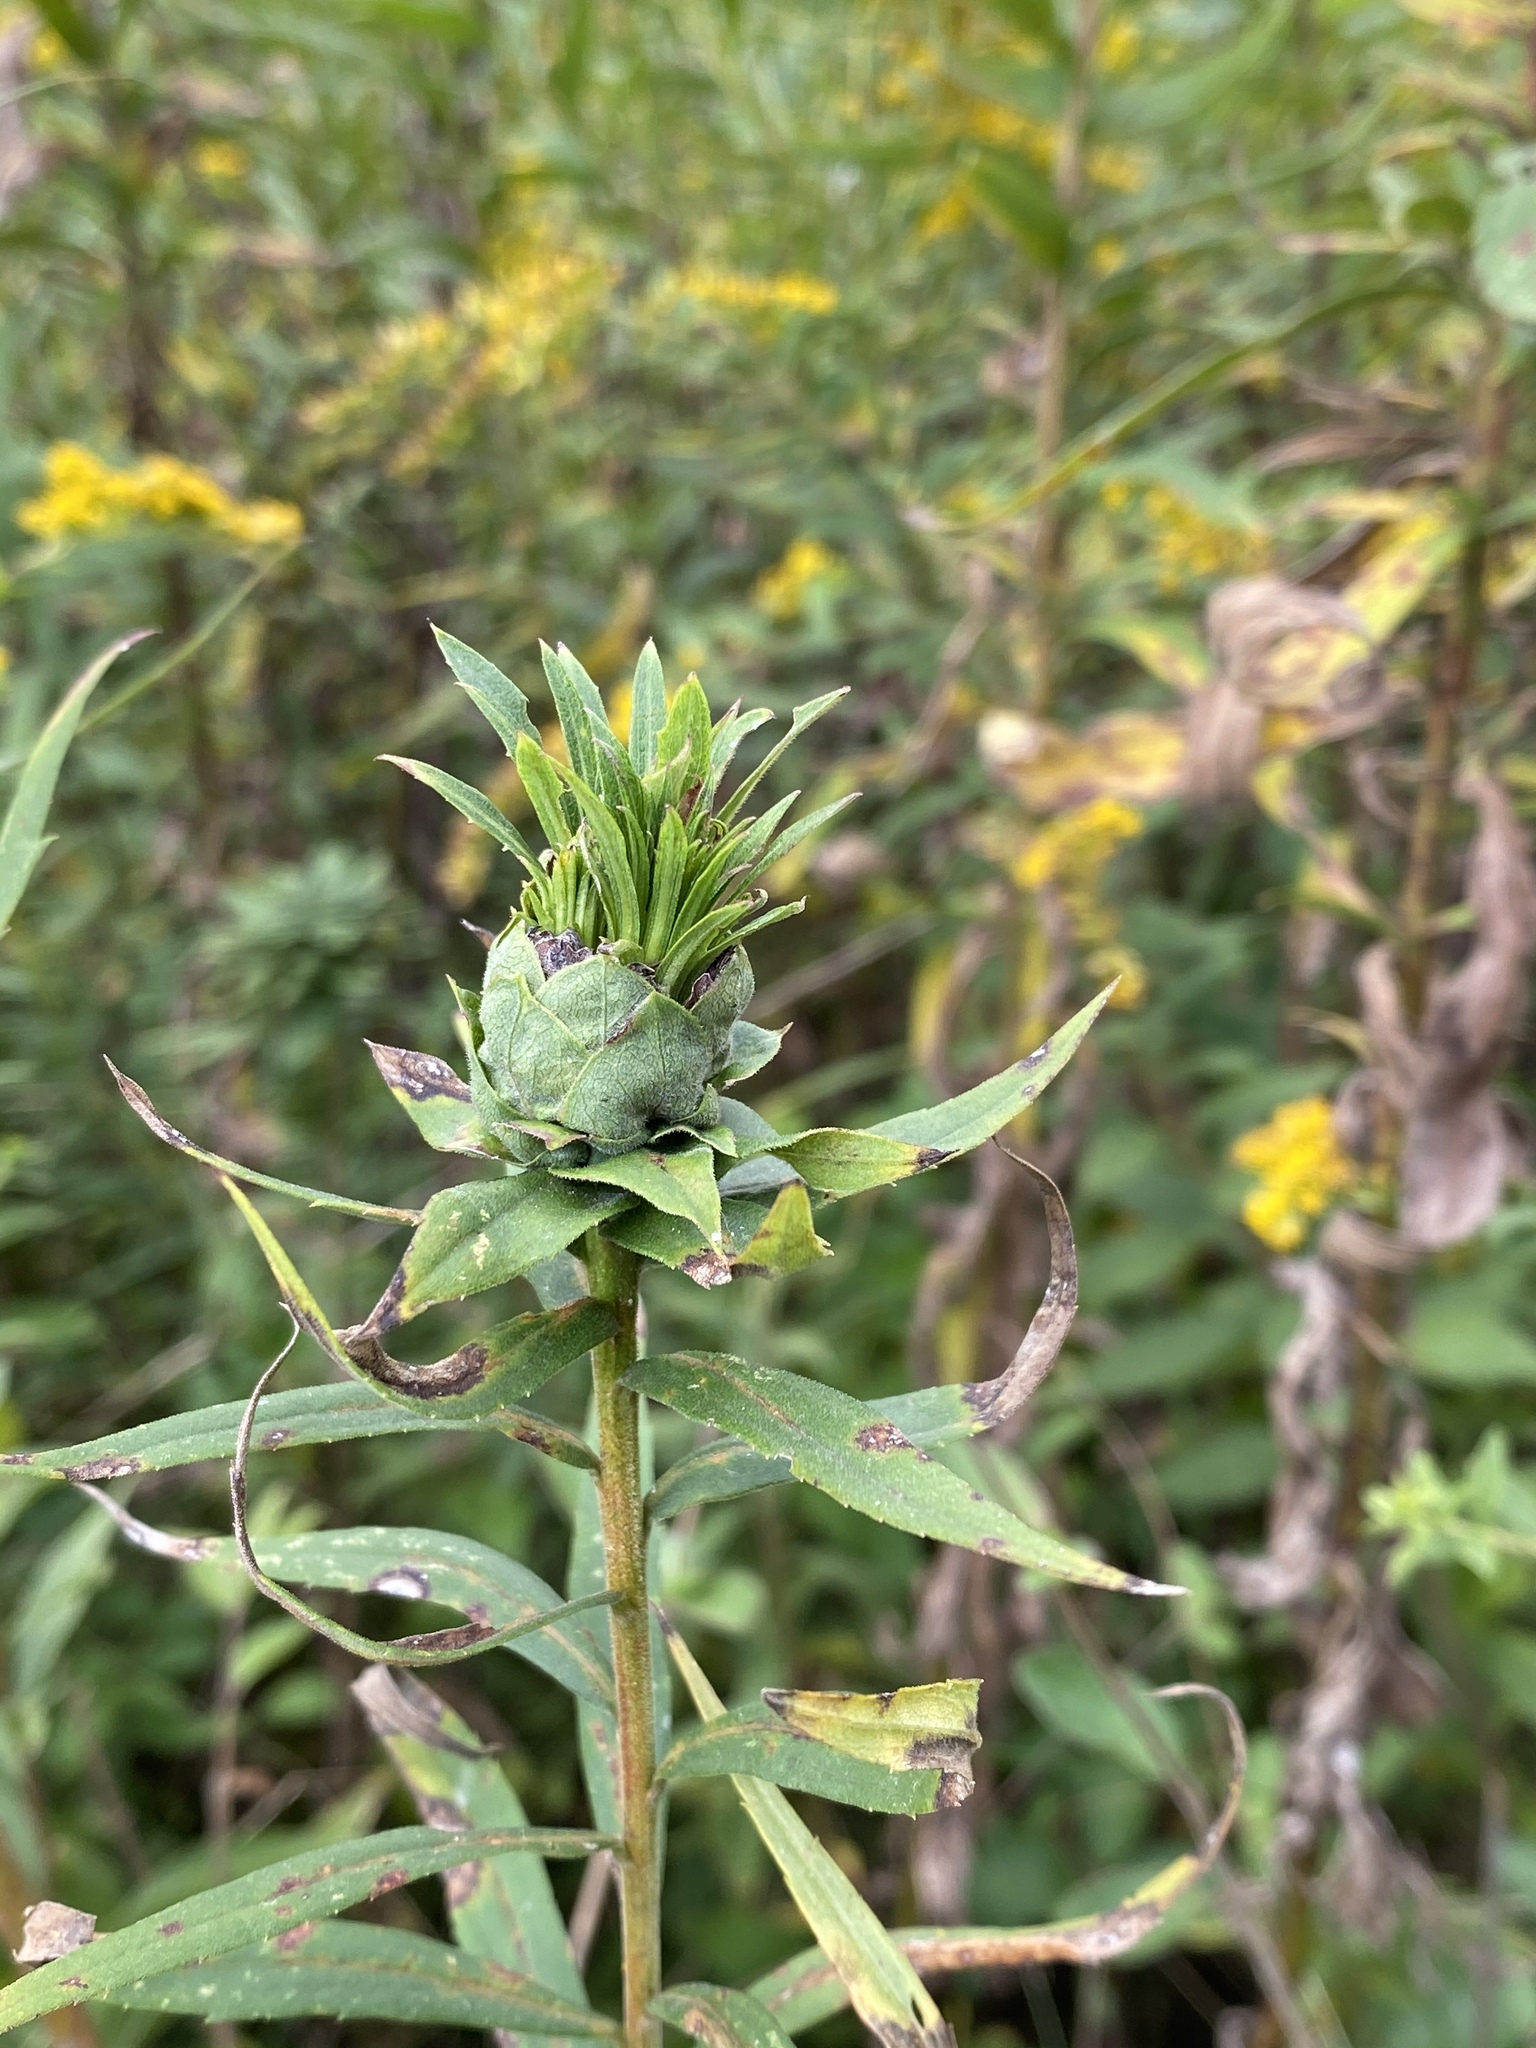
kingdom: Animalia
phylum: Arthropoda
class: Insecta
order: Diptera
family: Cecidomyiidae
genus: Rhopalomyia
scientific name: Rhopalomyia solidaginis
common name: Goldenrod bunch gall midge
